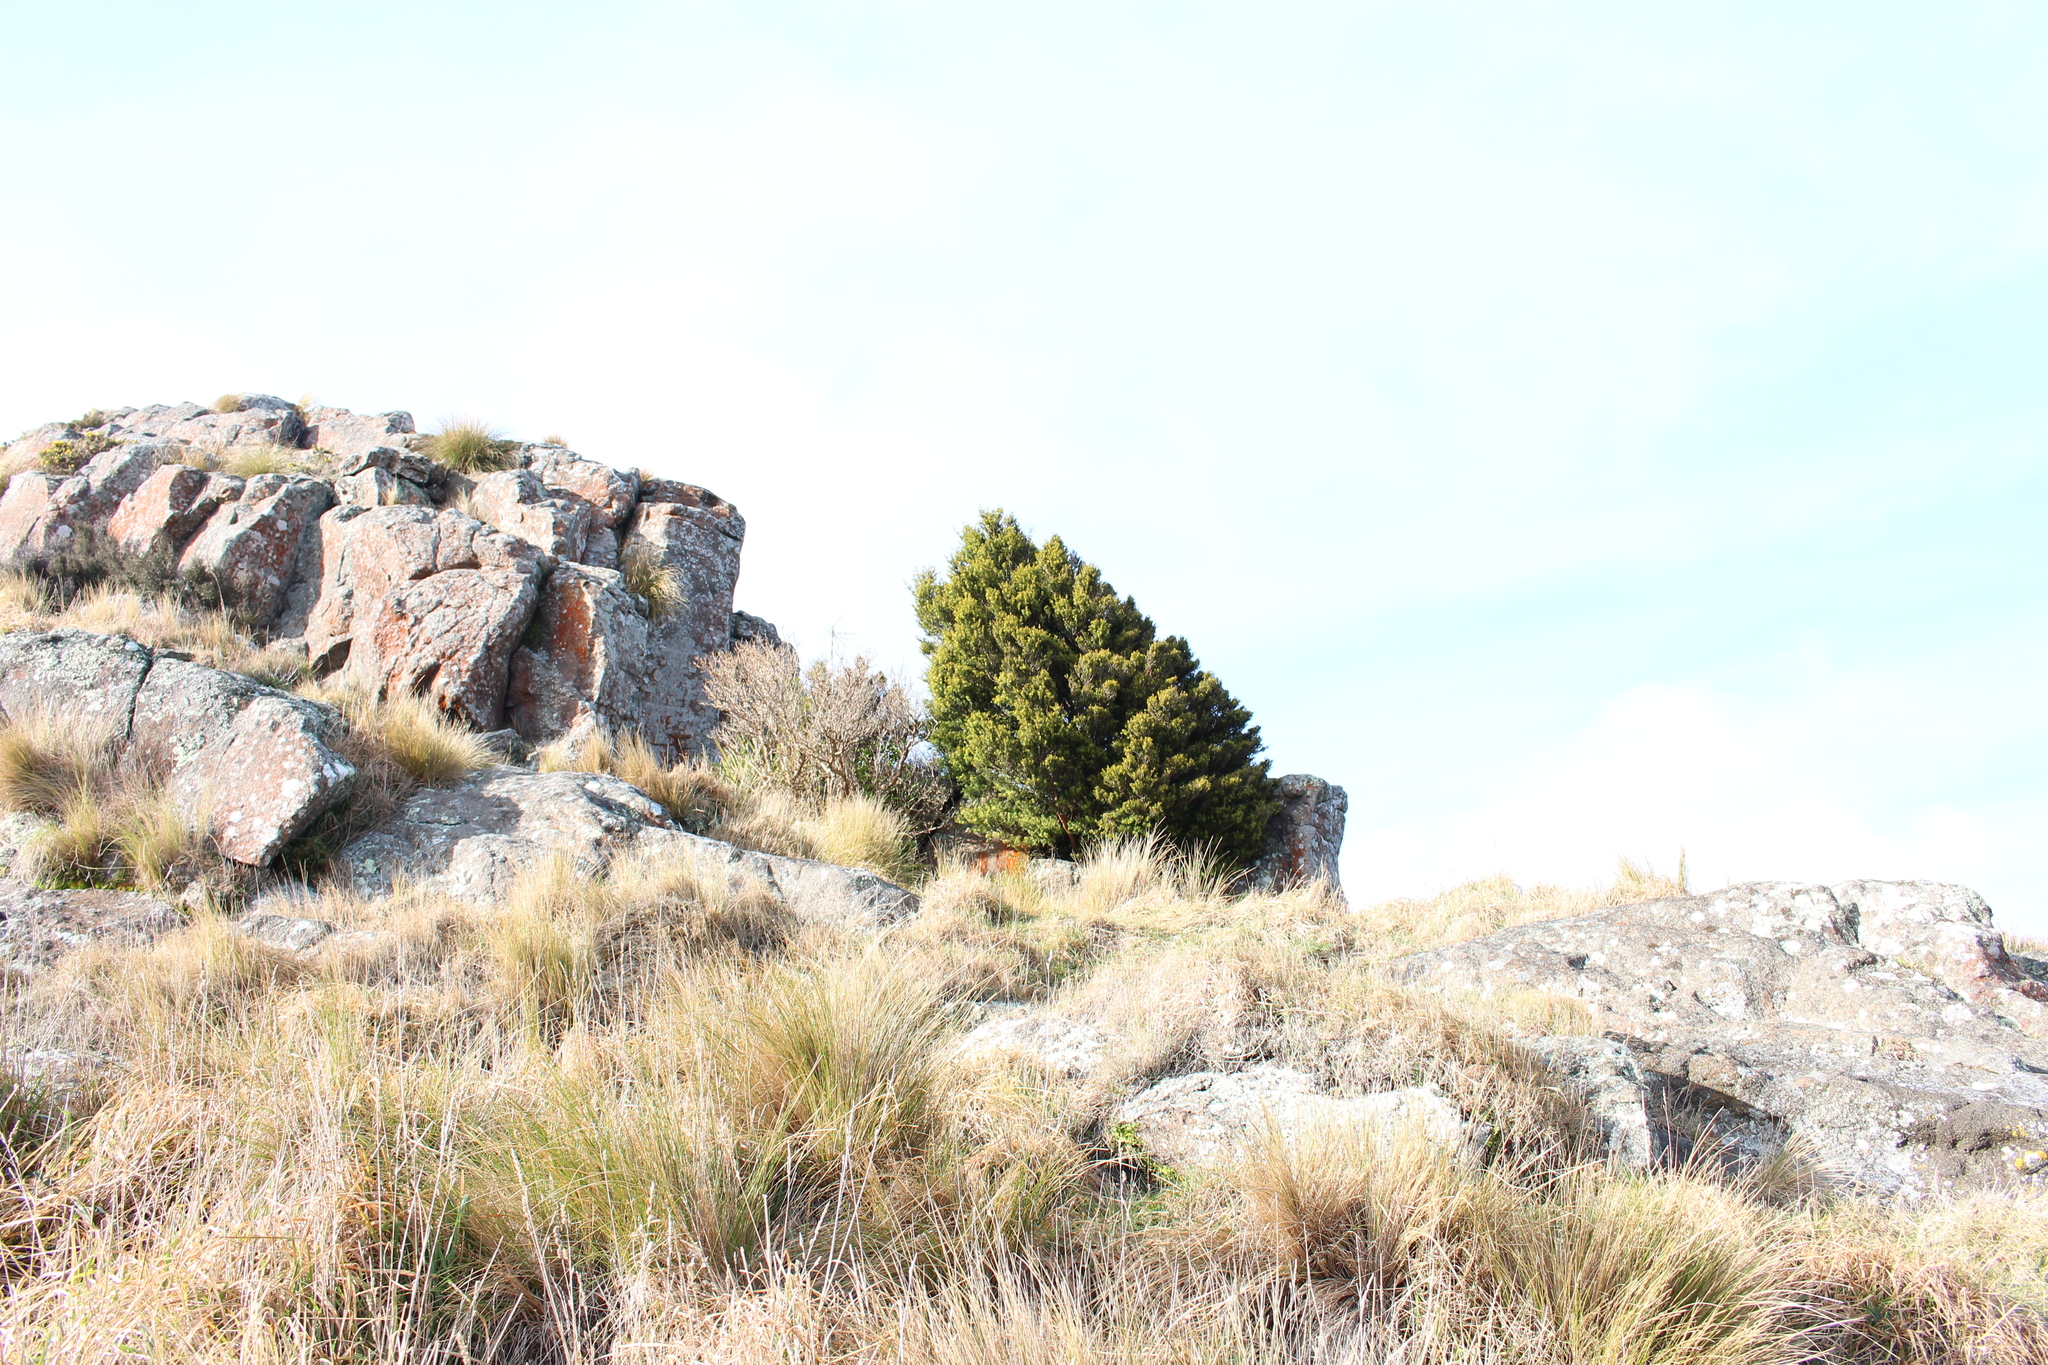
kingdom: Plantae
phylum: Tracheophyta
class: Pinopsida
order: Pinales
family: Podocarpaceae
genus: Podocarpus
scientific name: Podocarpus laetus
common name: Hall's totara
